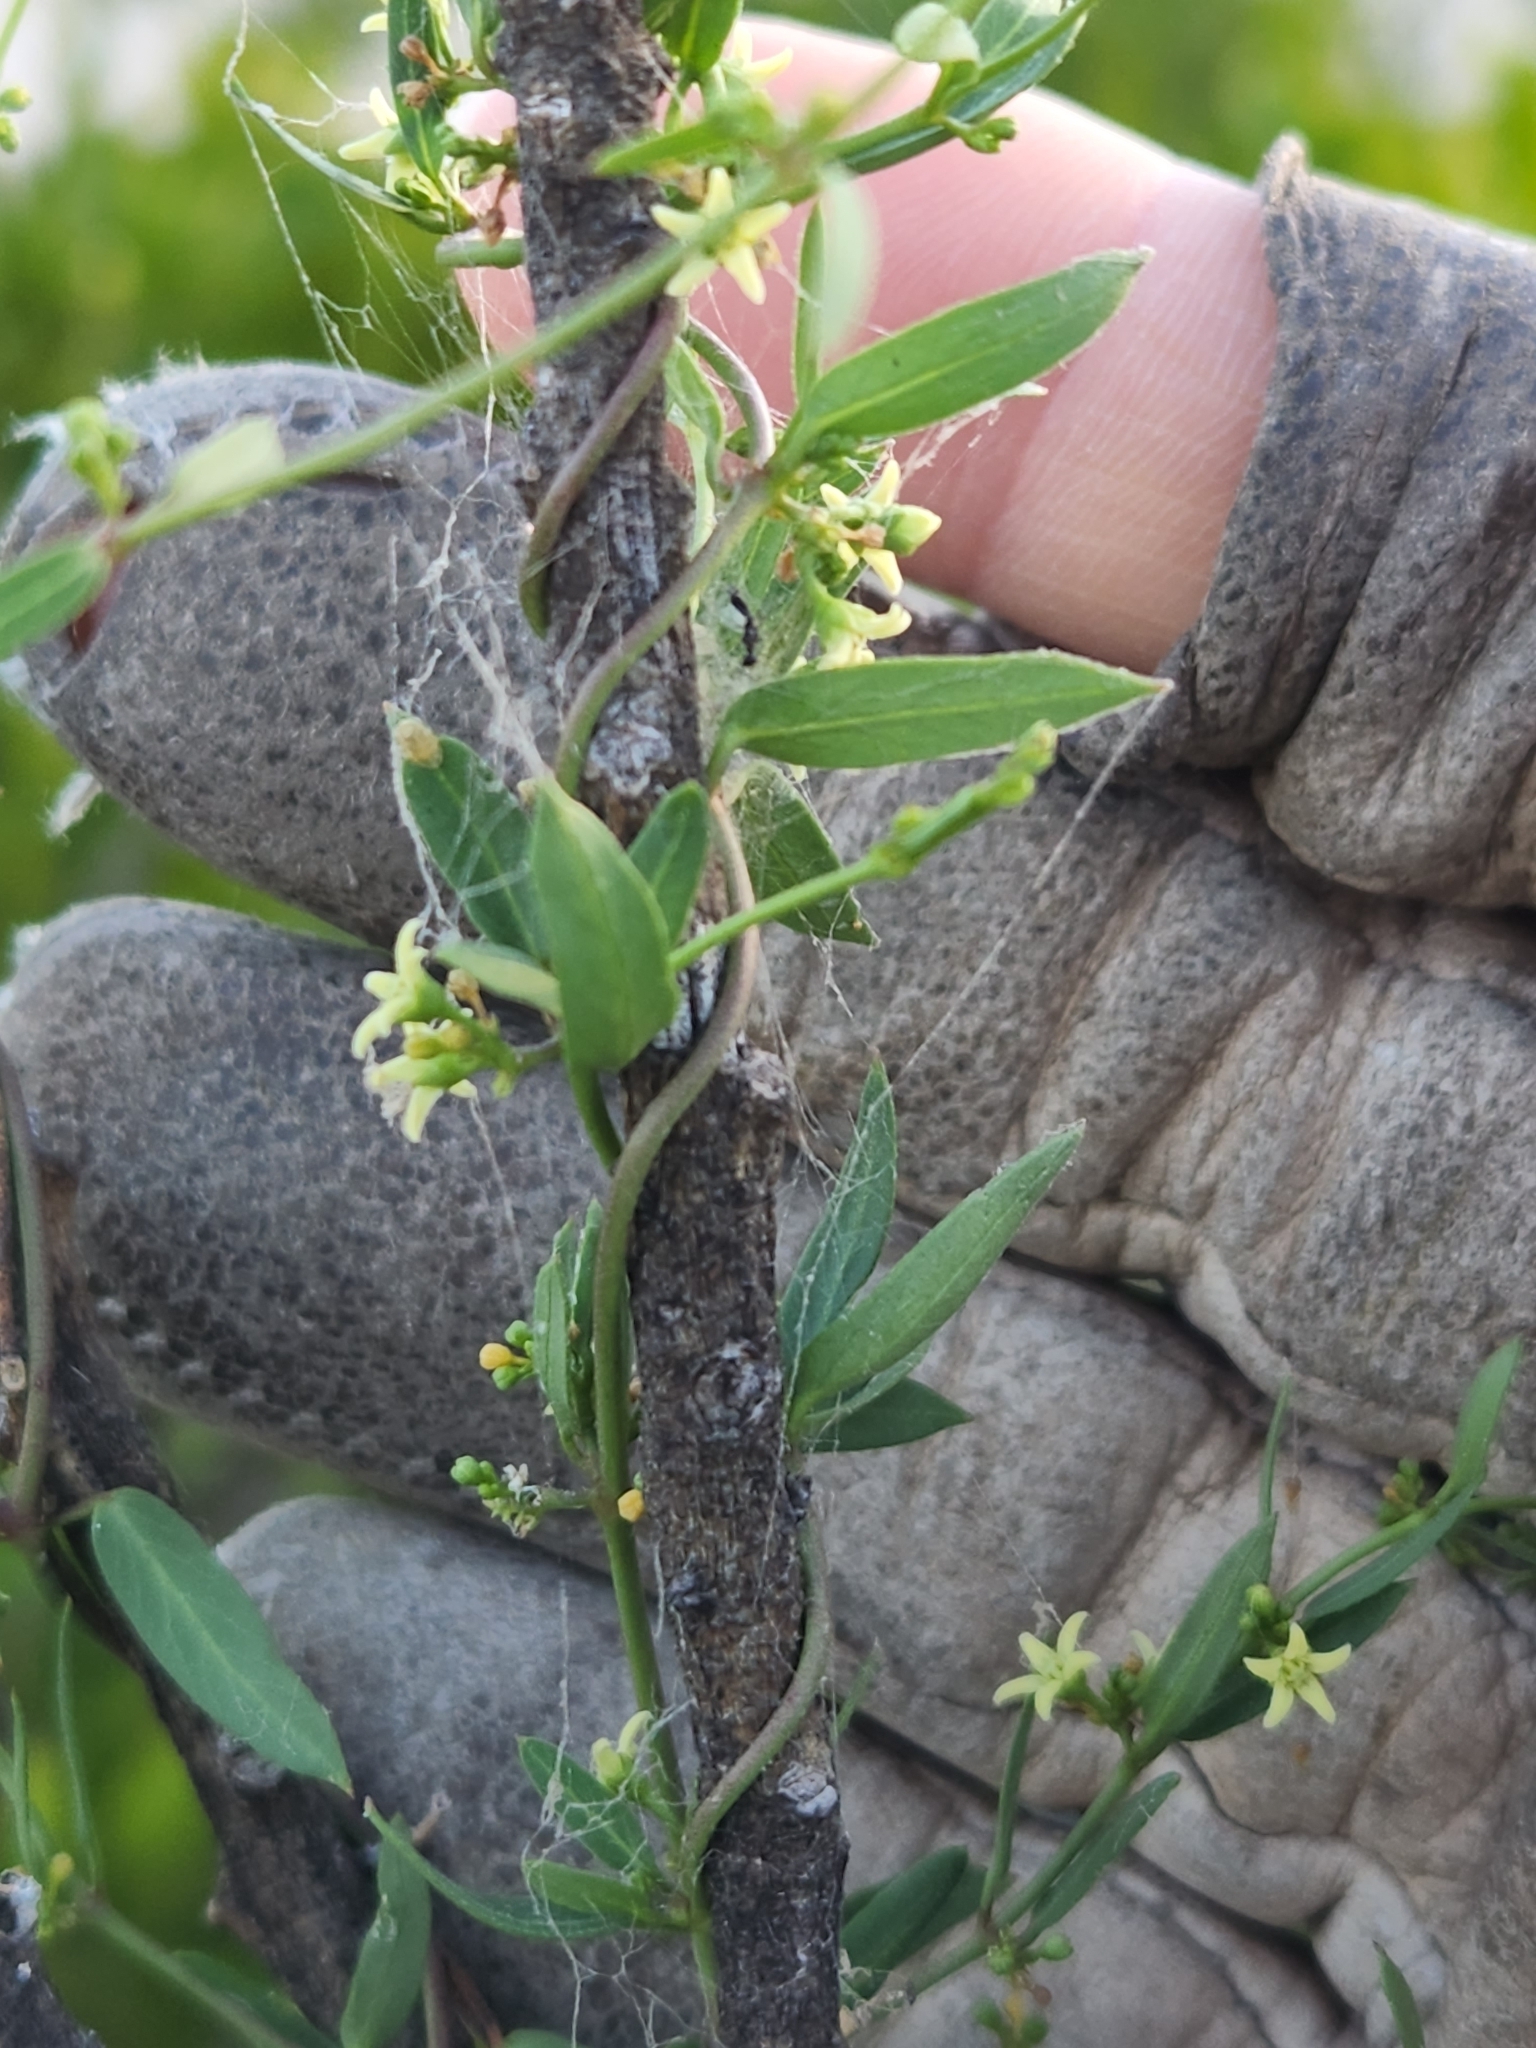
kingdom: Plantae
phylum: Tracheophyta
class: Magnoliopsida
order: Gentianales
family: Apocynaceae
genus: Metastelma
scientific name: Metastelma palmeri
